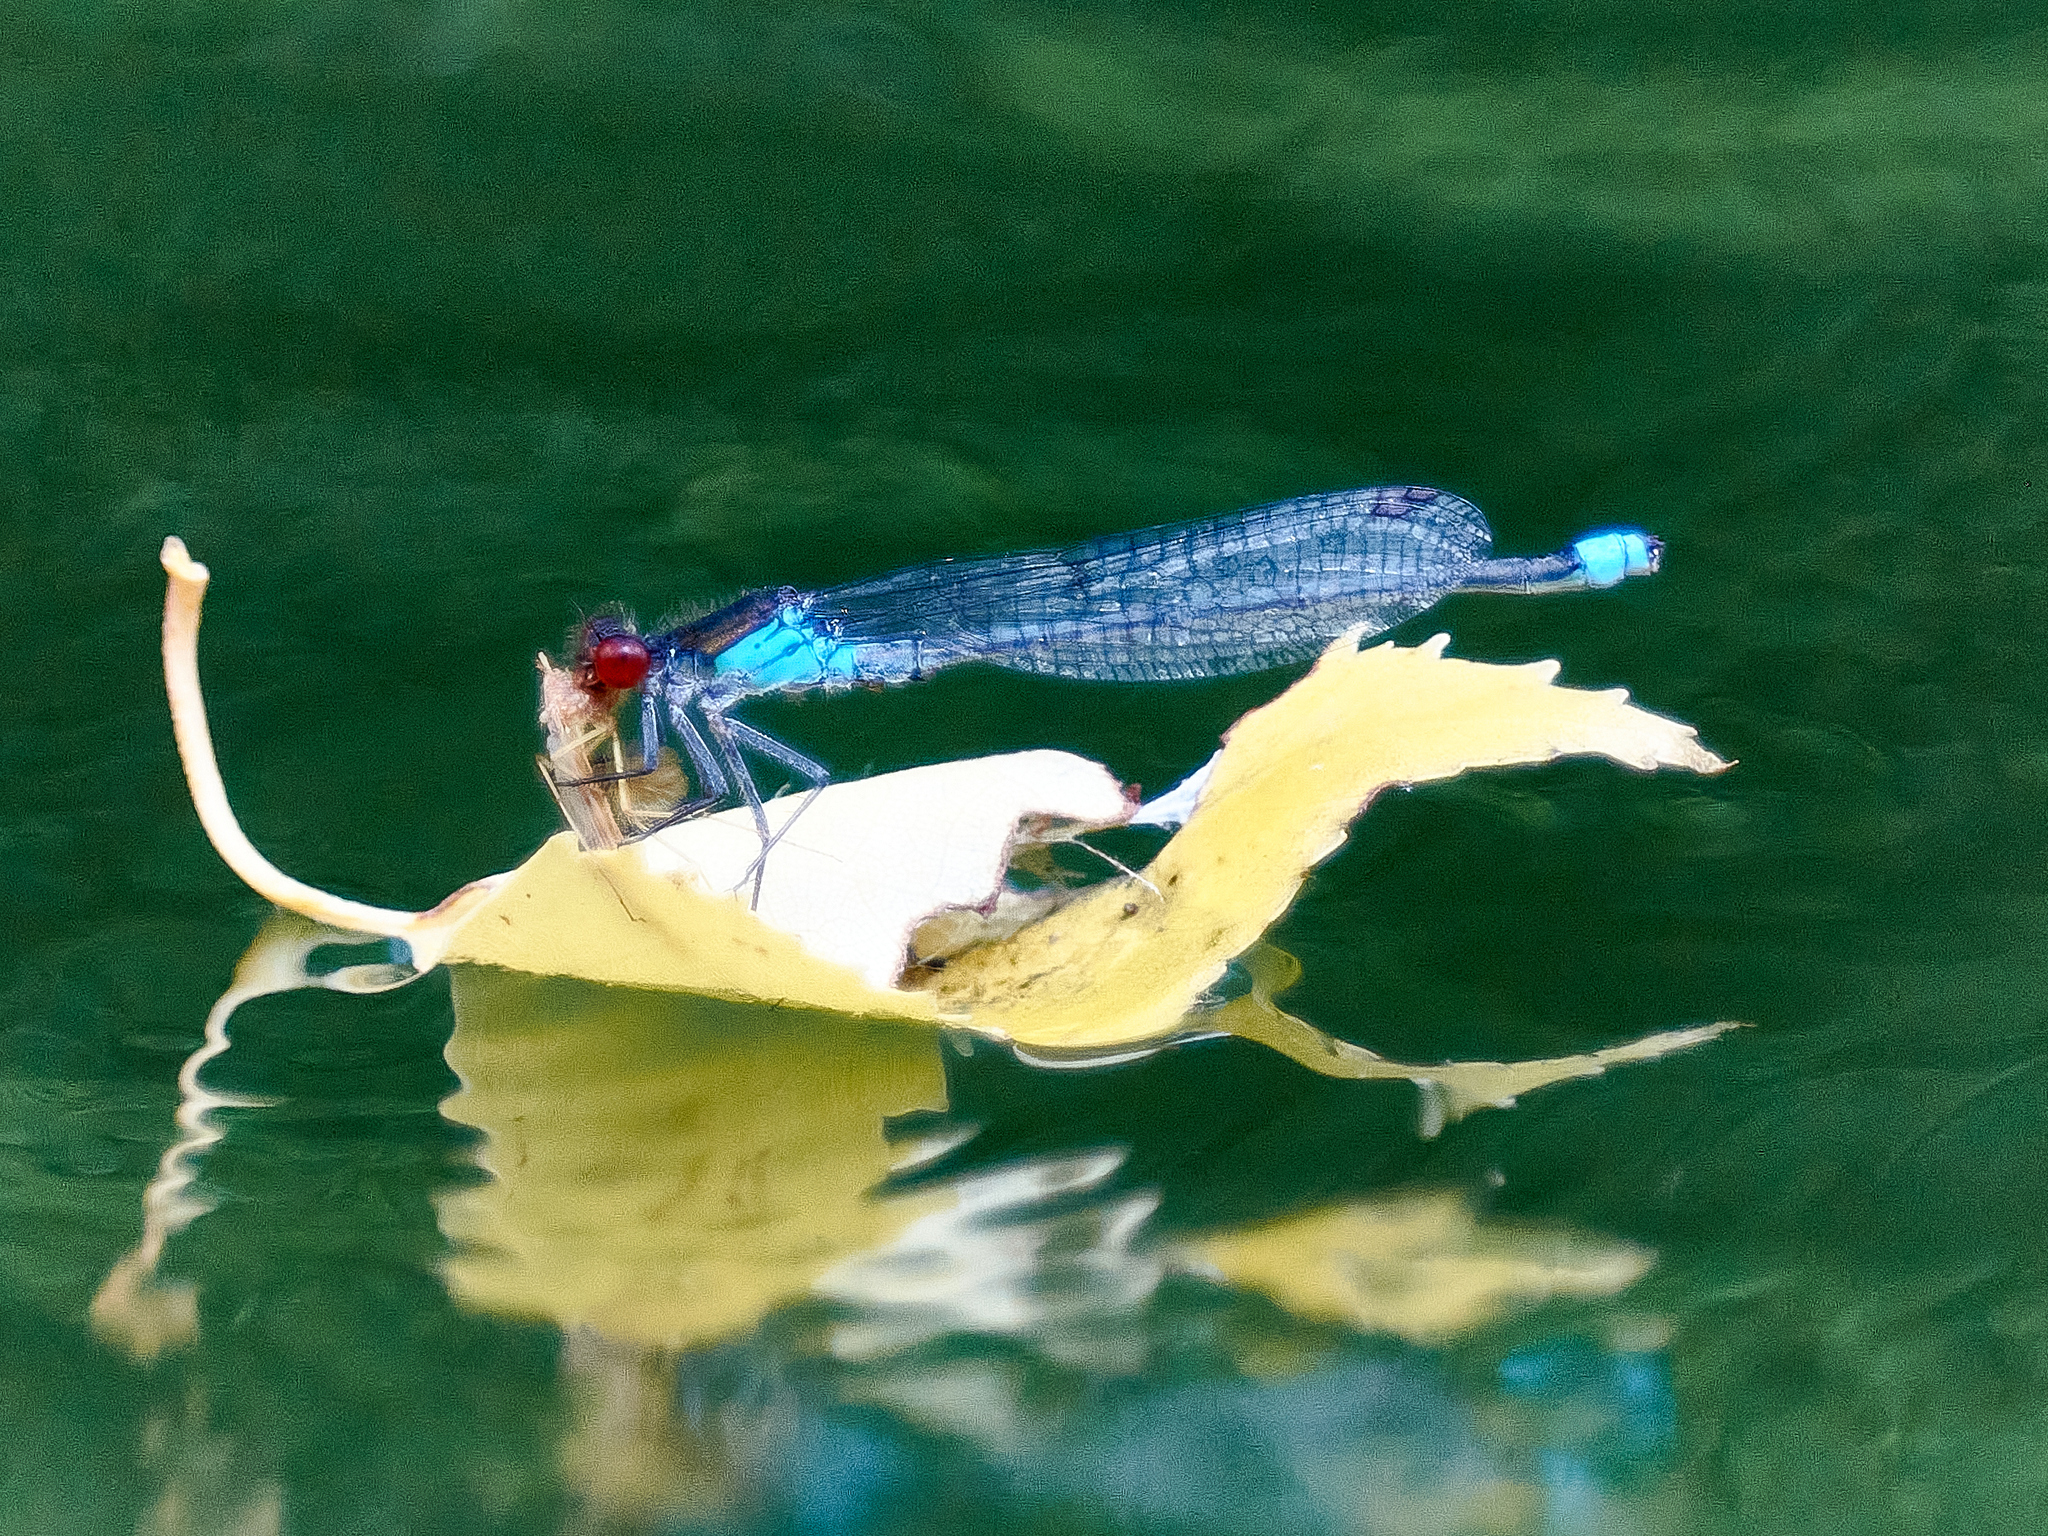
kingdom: Animalia
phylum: Arthropoda
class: Insecta
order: Odonata
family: Coenagrionidae
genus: Erythromma
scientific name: Erythromma najas
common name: Red-eyed damselfly
